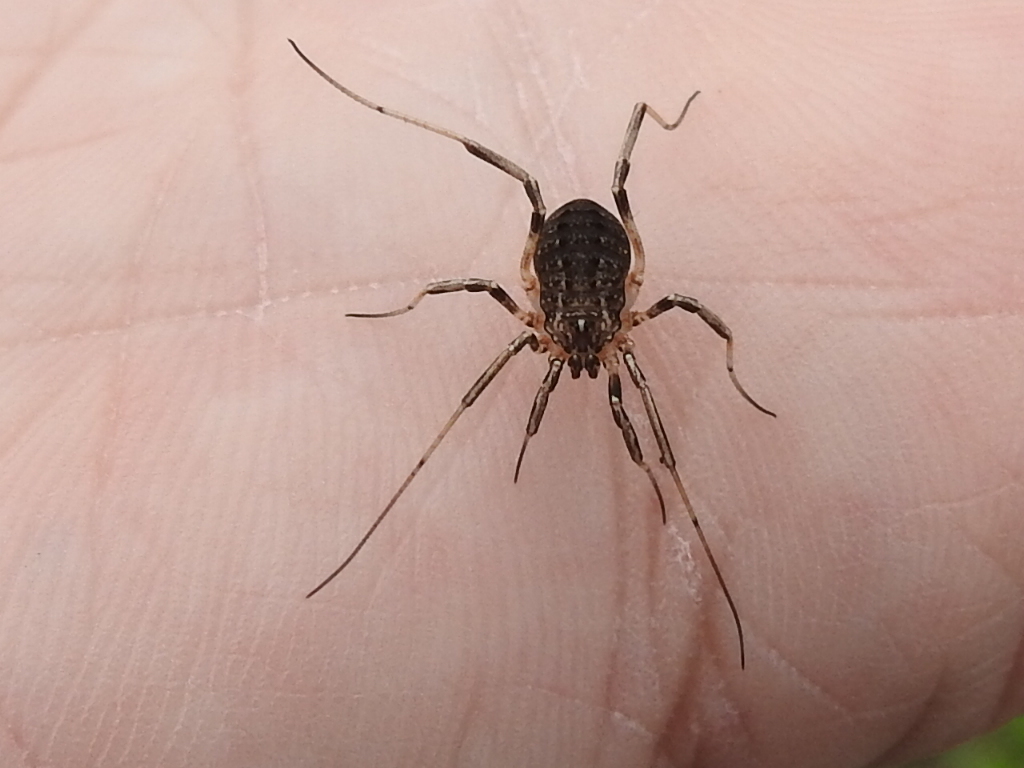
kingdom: Animalia
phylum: Arthropoda
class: Arachnida
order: Opiliones
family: Sclerosomatidae
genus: Eumesosoma
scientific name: Eumesosoma roeweri
